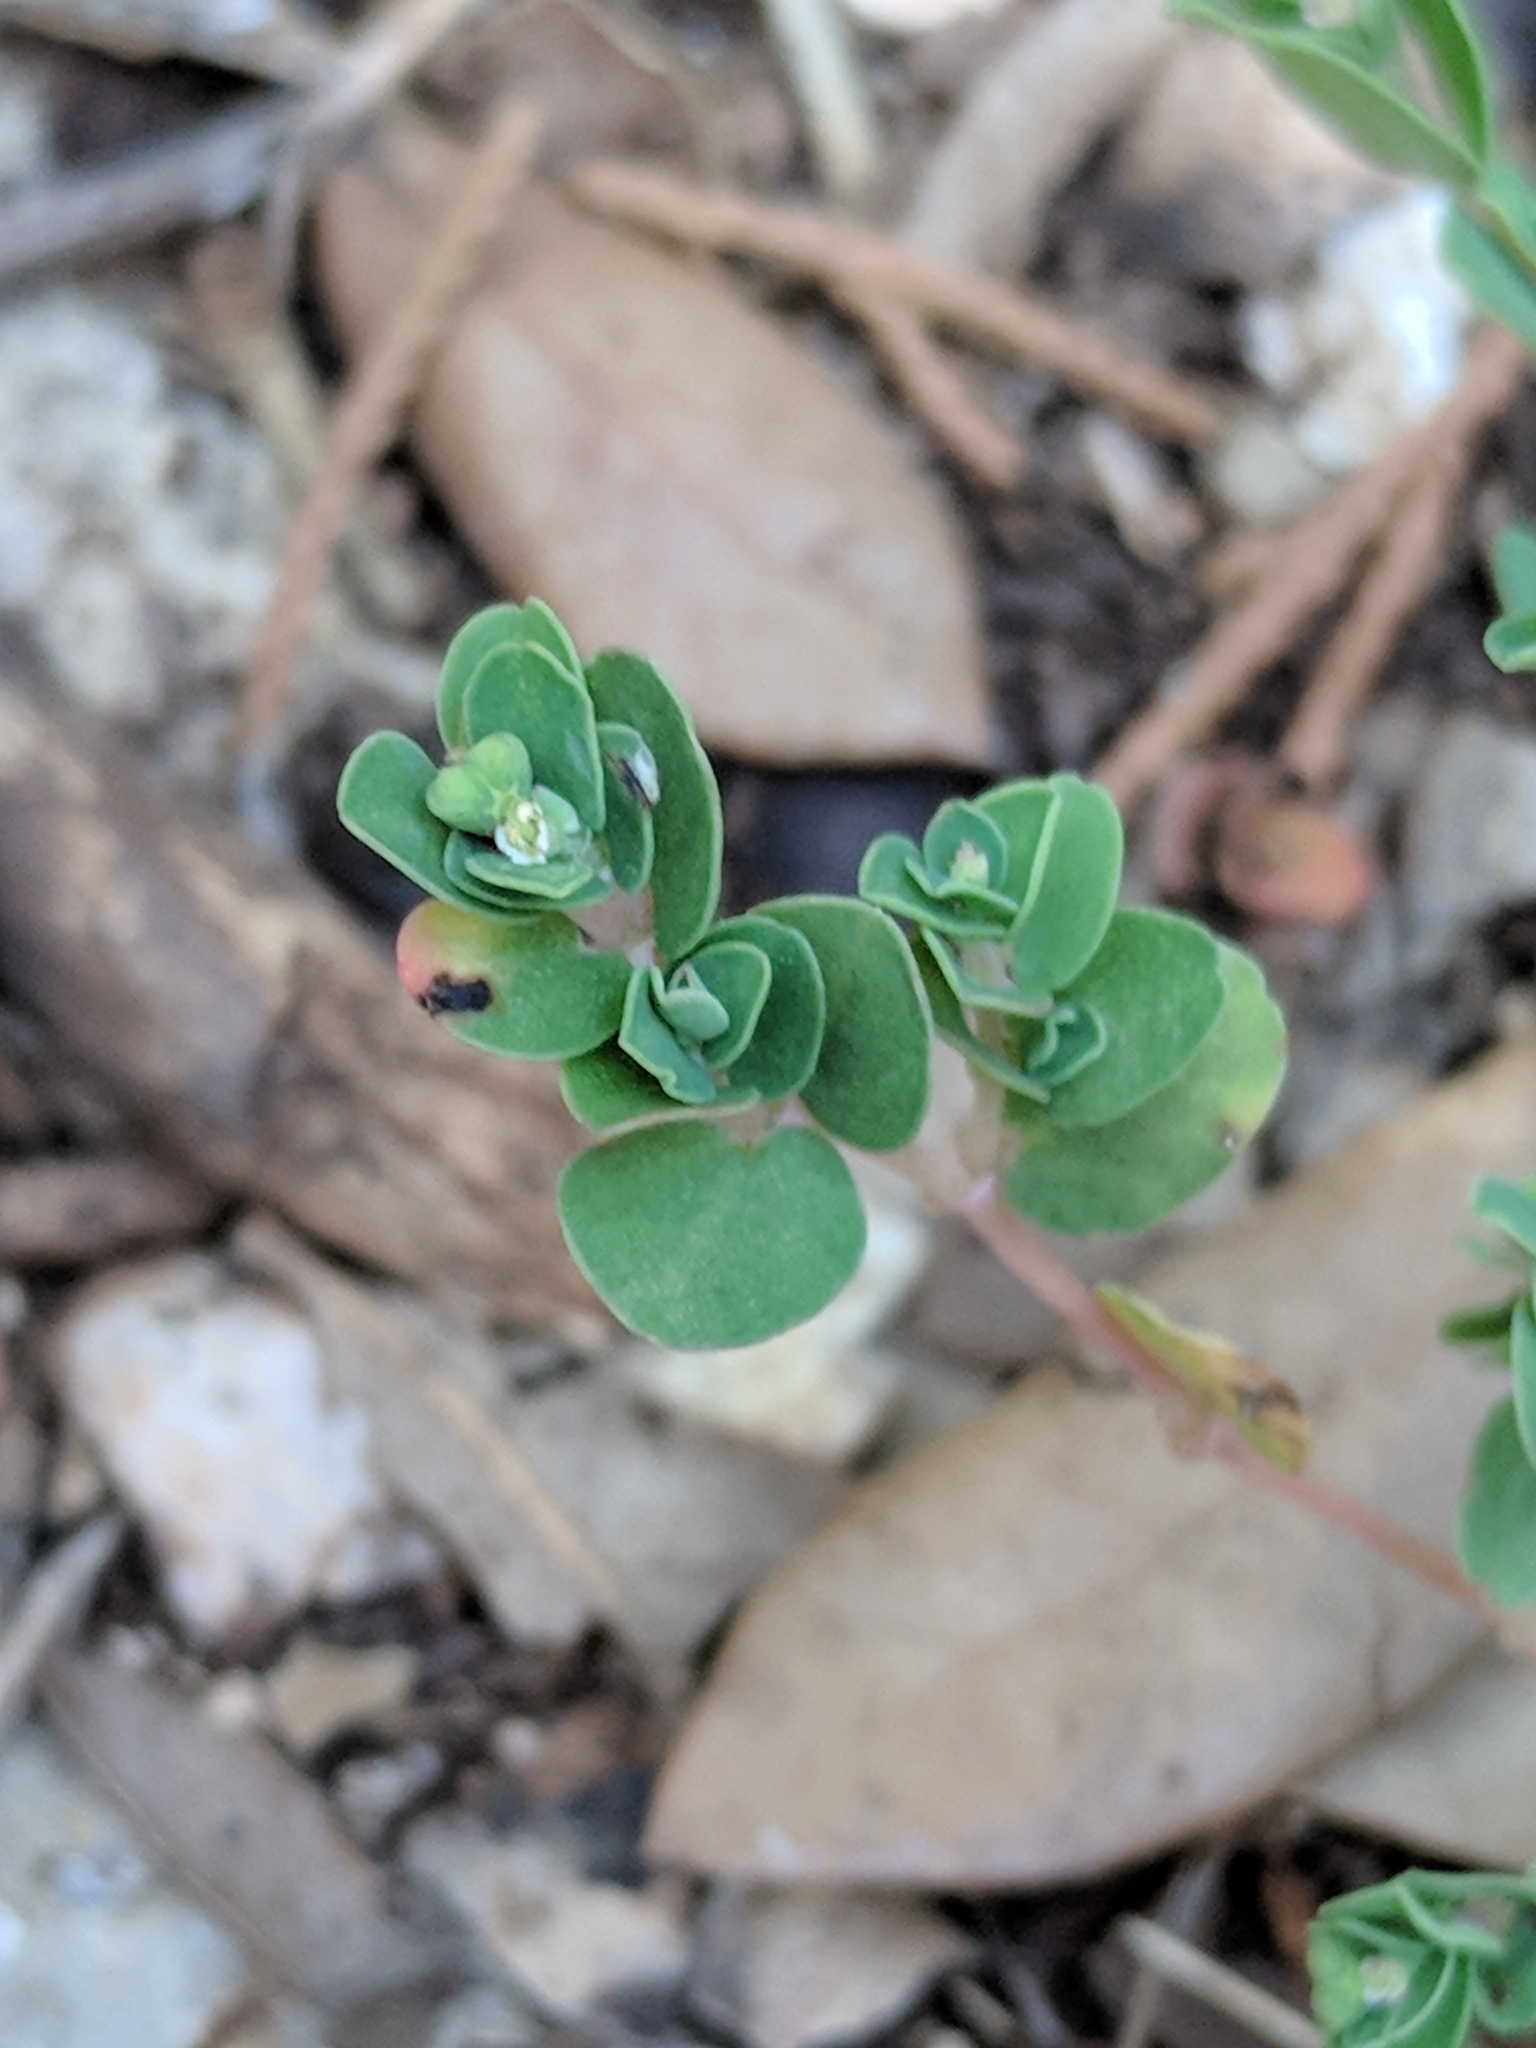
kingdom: Plantae
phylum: Tracheophyta
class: Magnoliopsida
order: Malpighiales
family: Euphorbiaceae
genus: Euphorbia
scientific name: Euphorbia serpens
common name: Matted sandmat
